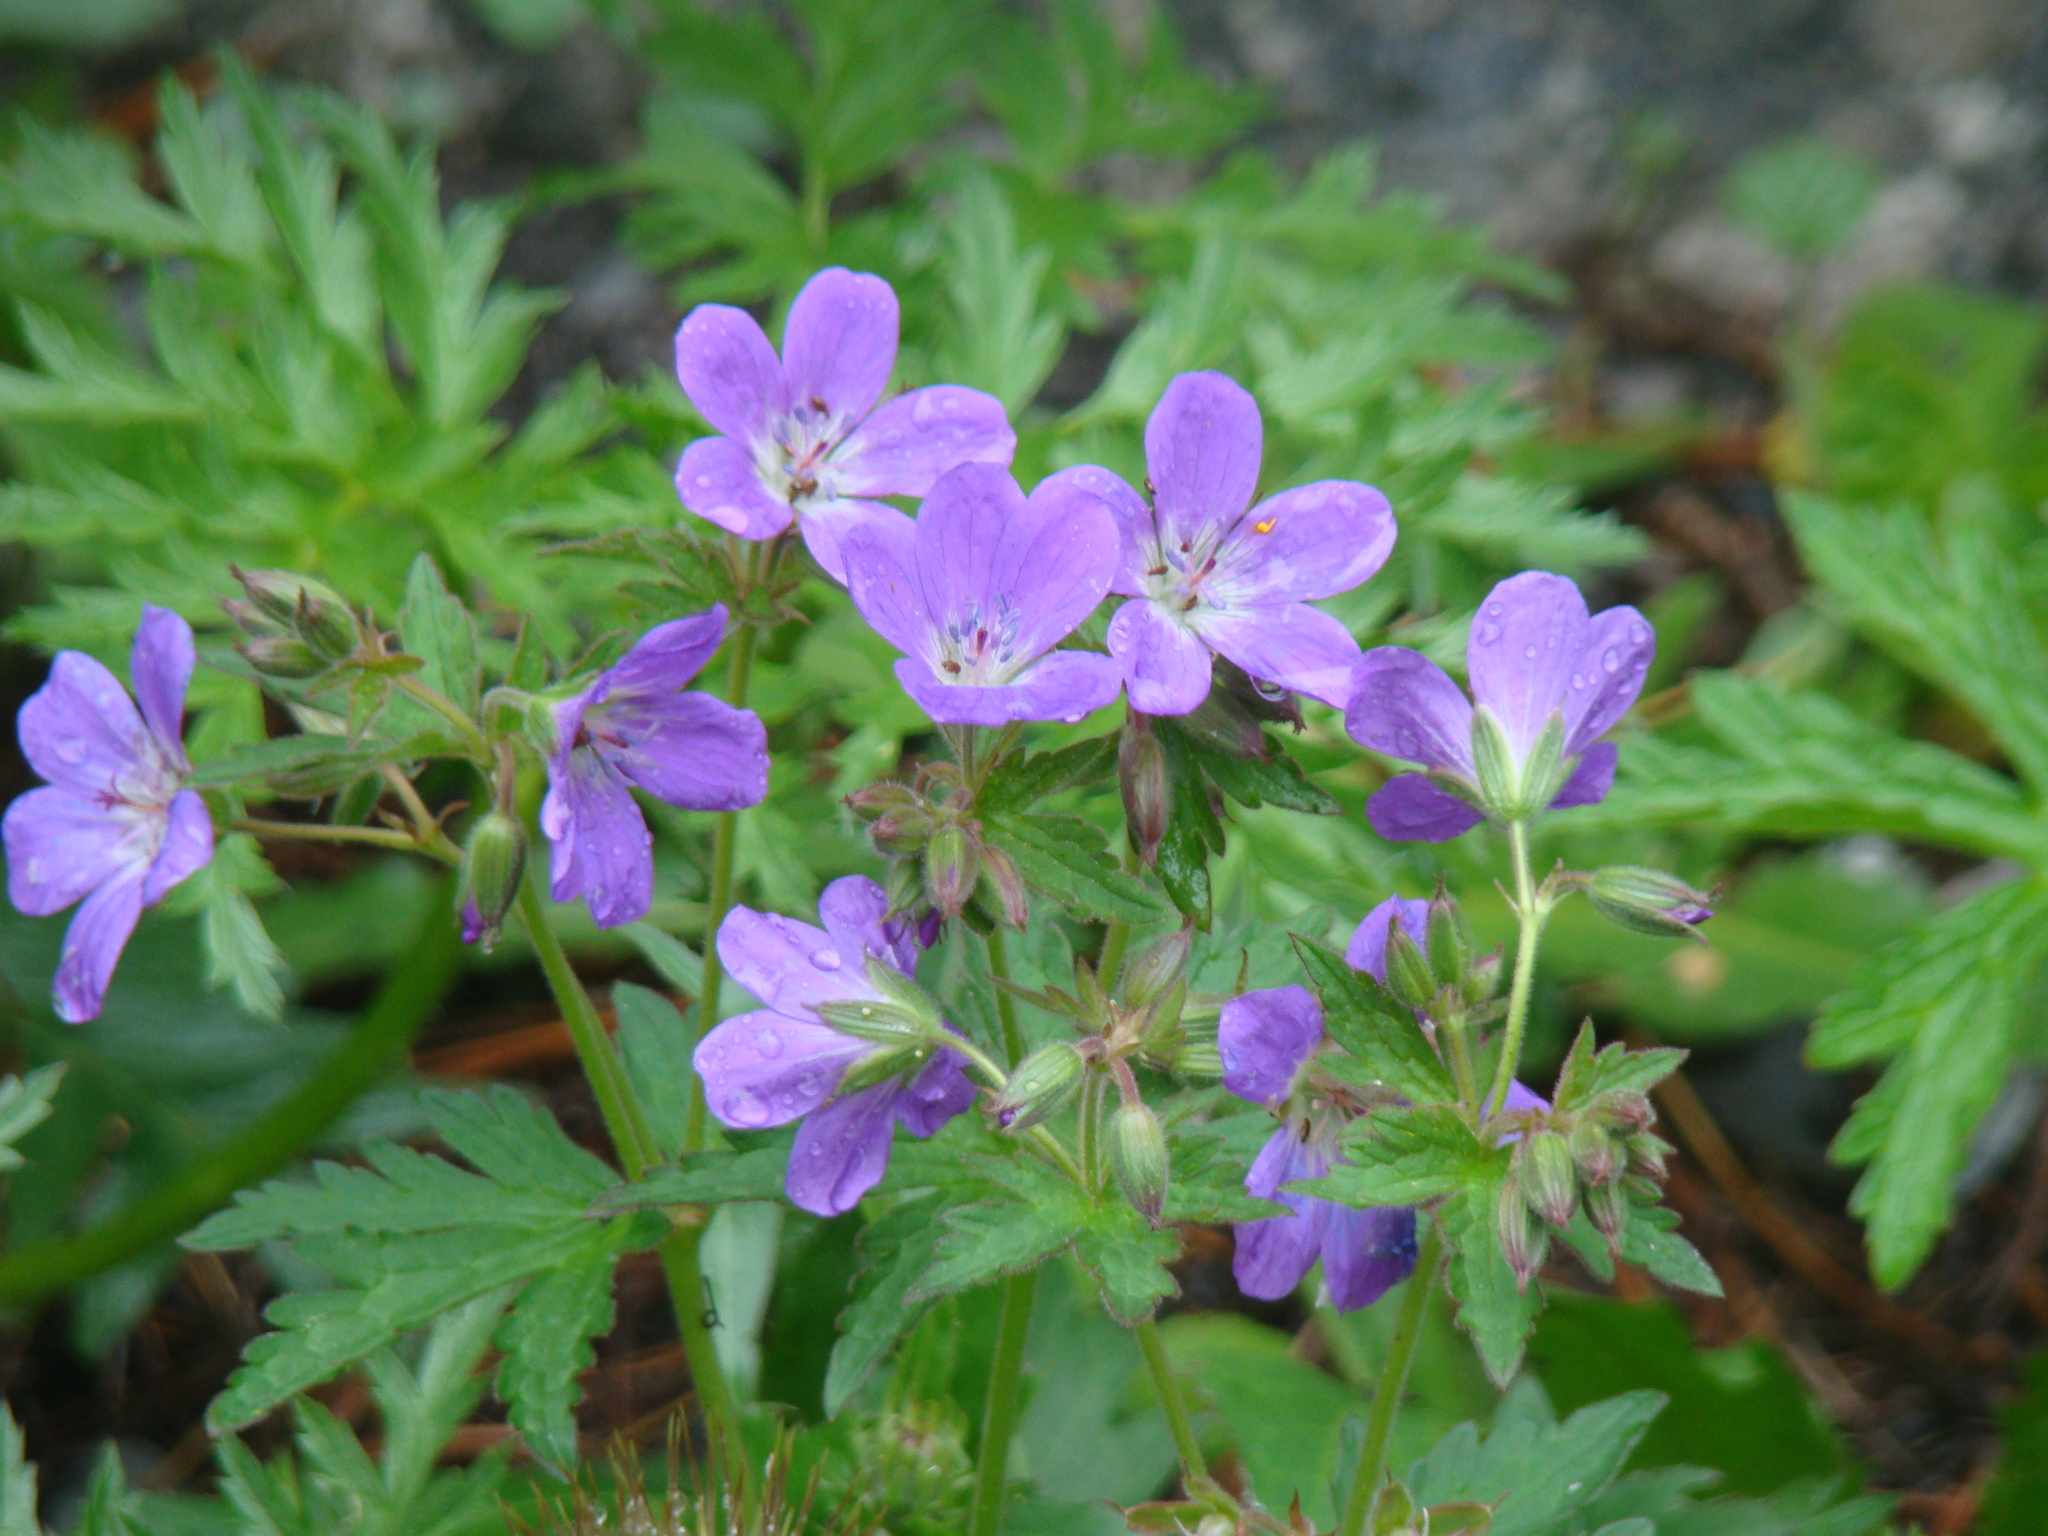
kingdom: Plantae
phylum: Tracheophyta
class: Magnoliopsida
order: Geraniales
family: Geraniaceae
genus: Geranium
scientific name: Geranium sylvaticum
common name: Wood crane's-bill
